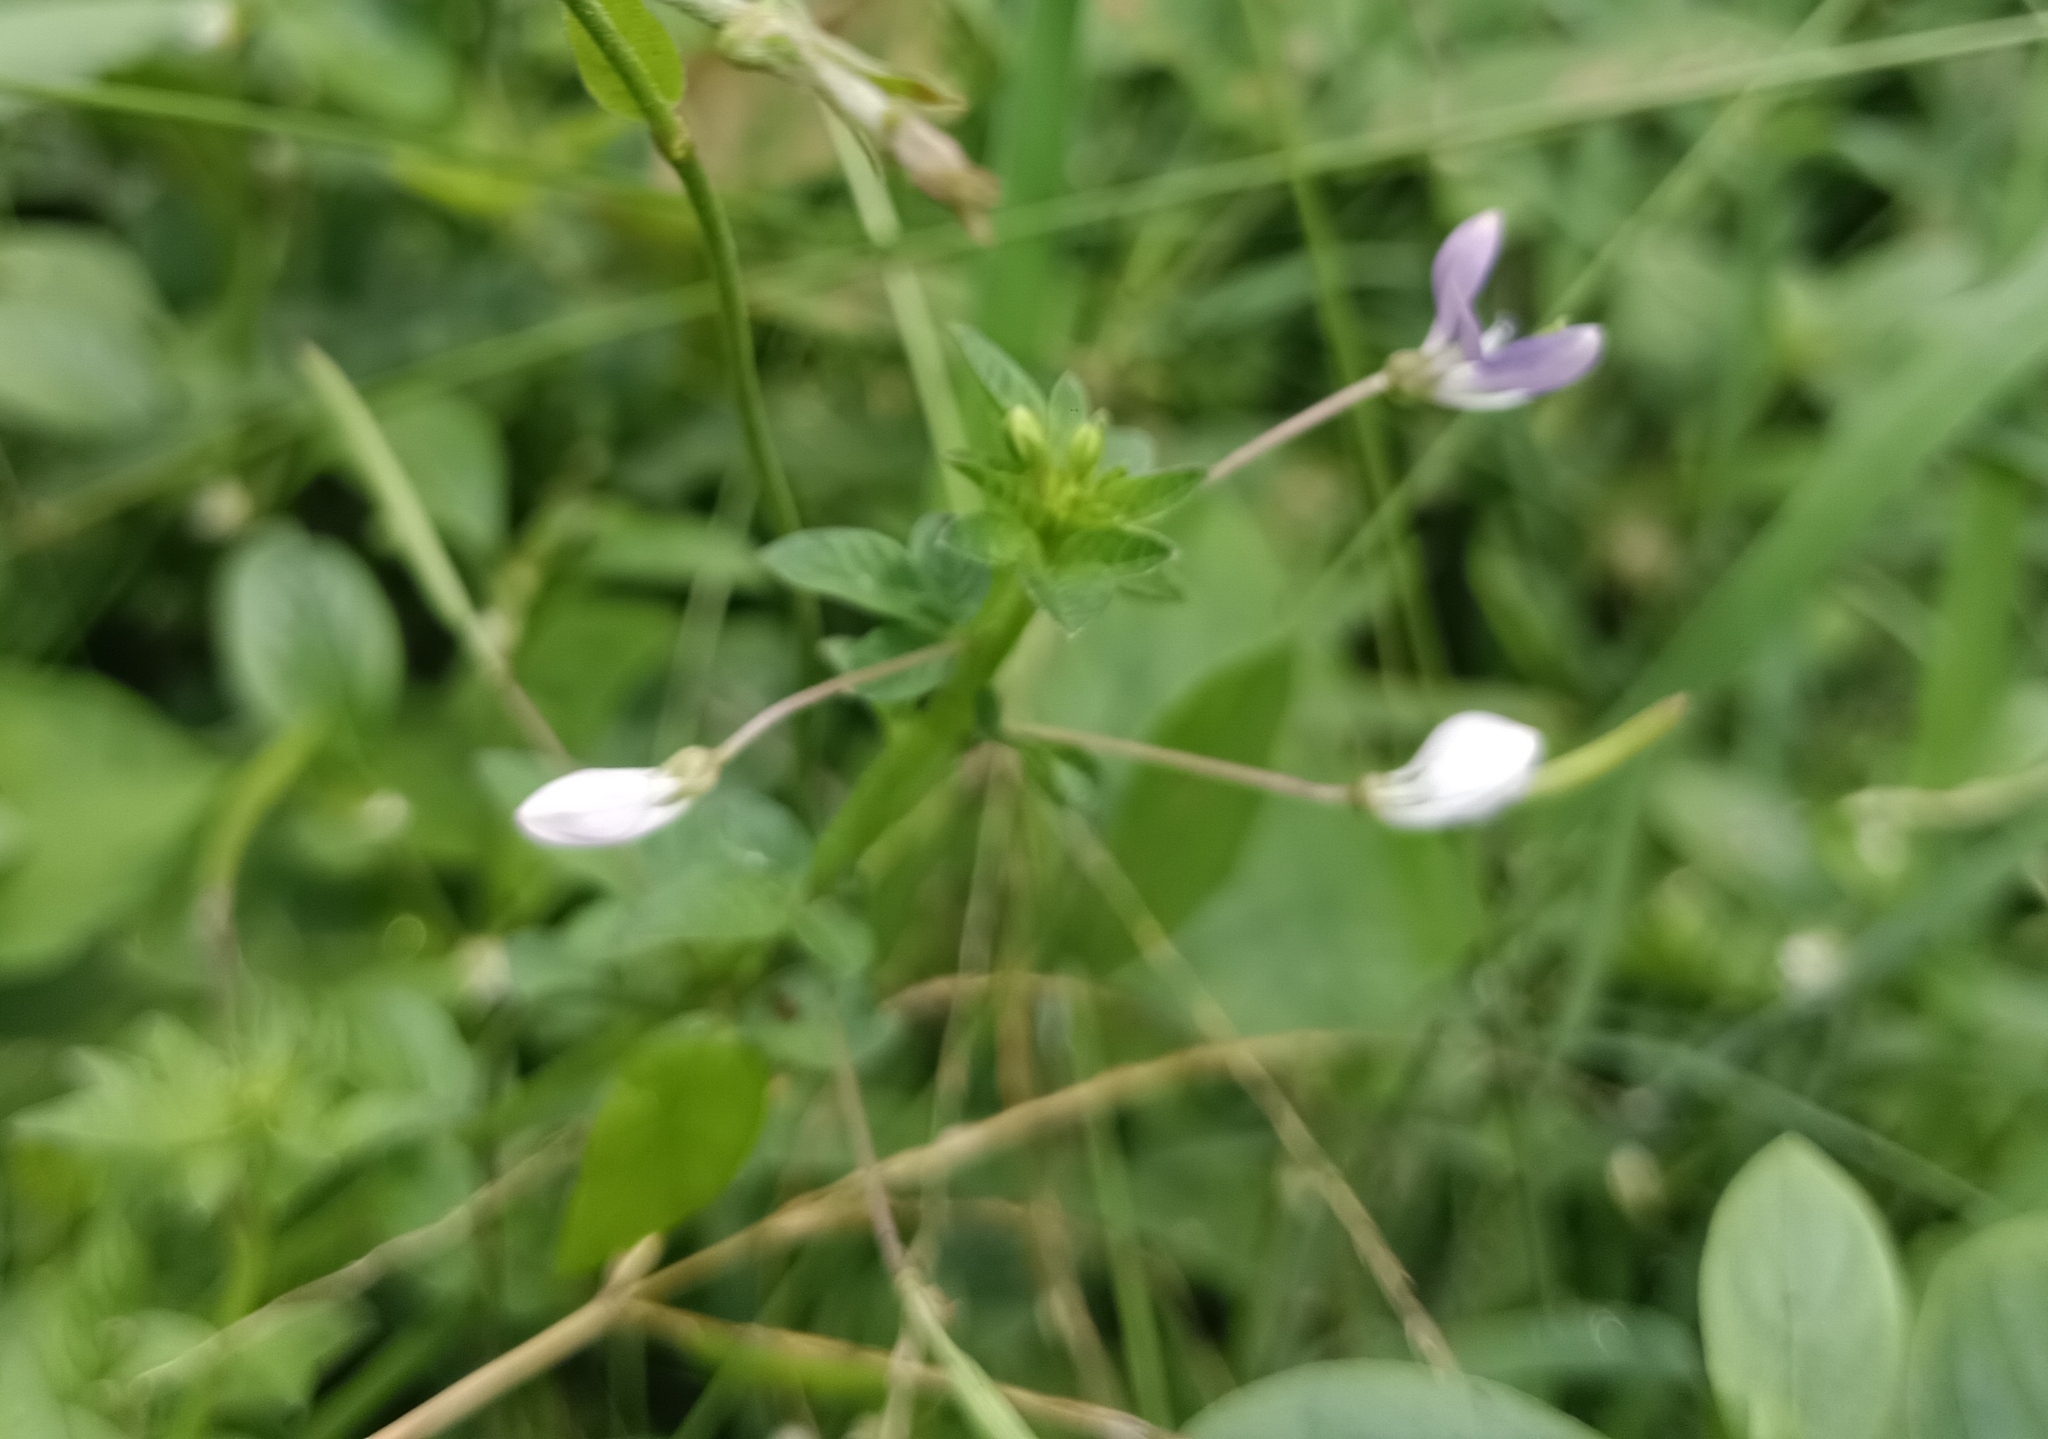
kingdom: Plantae
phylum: Tracheophyta
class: Magnoliopsida
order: Brassicales
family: Cleomaceae
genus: Sieruela
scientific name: Sieruela rutidosperma
